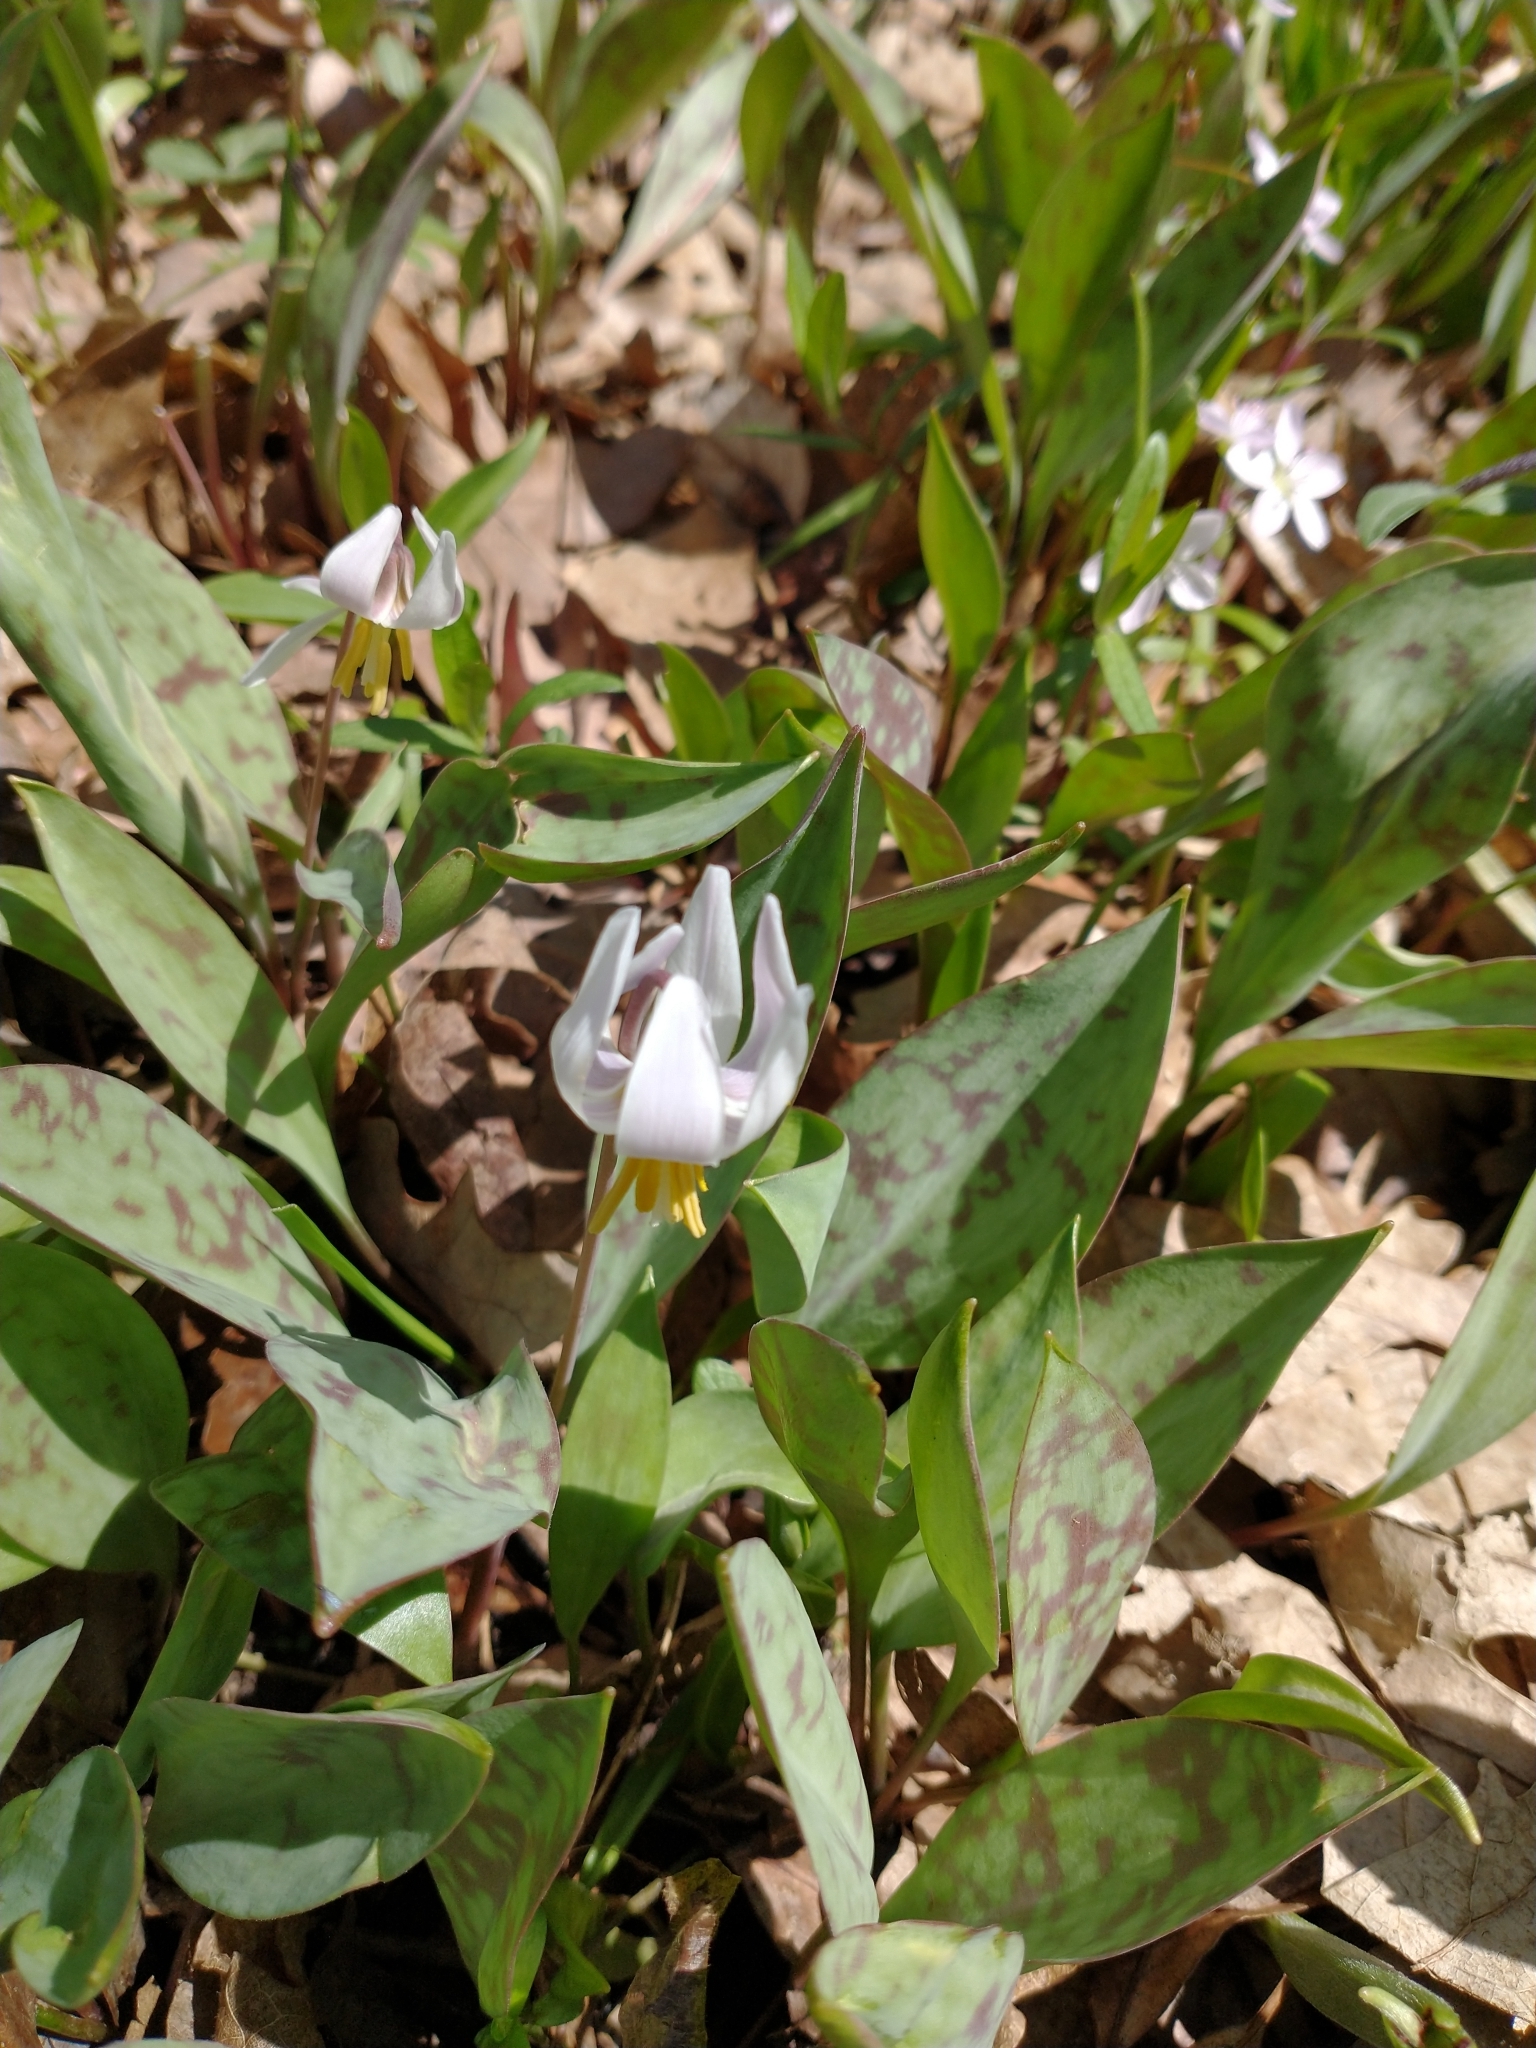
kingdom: Plantae
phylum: Tracheophyta
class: Liliopsida
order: Liliales
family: Liliaceae
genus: Erythronium
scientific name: Erythronium albidum
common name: White trout-lily
